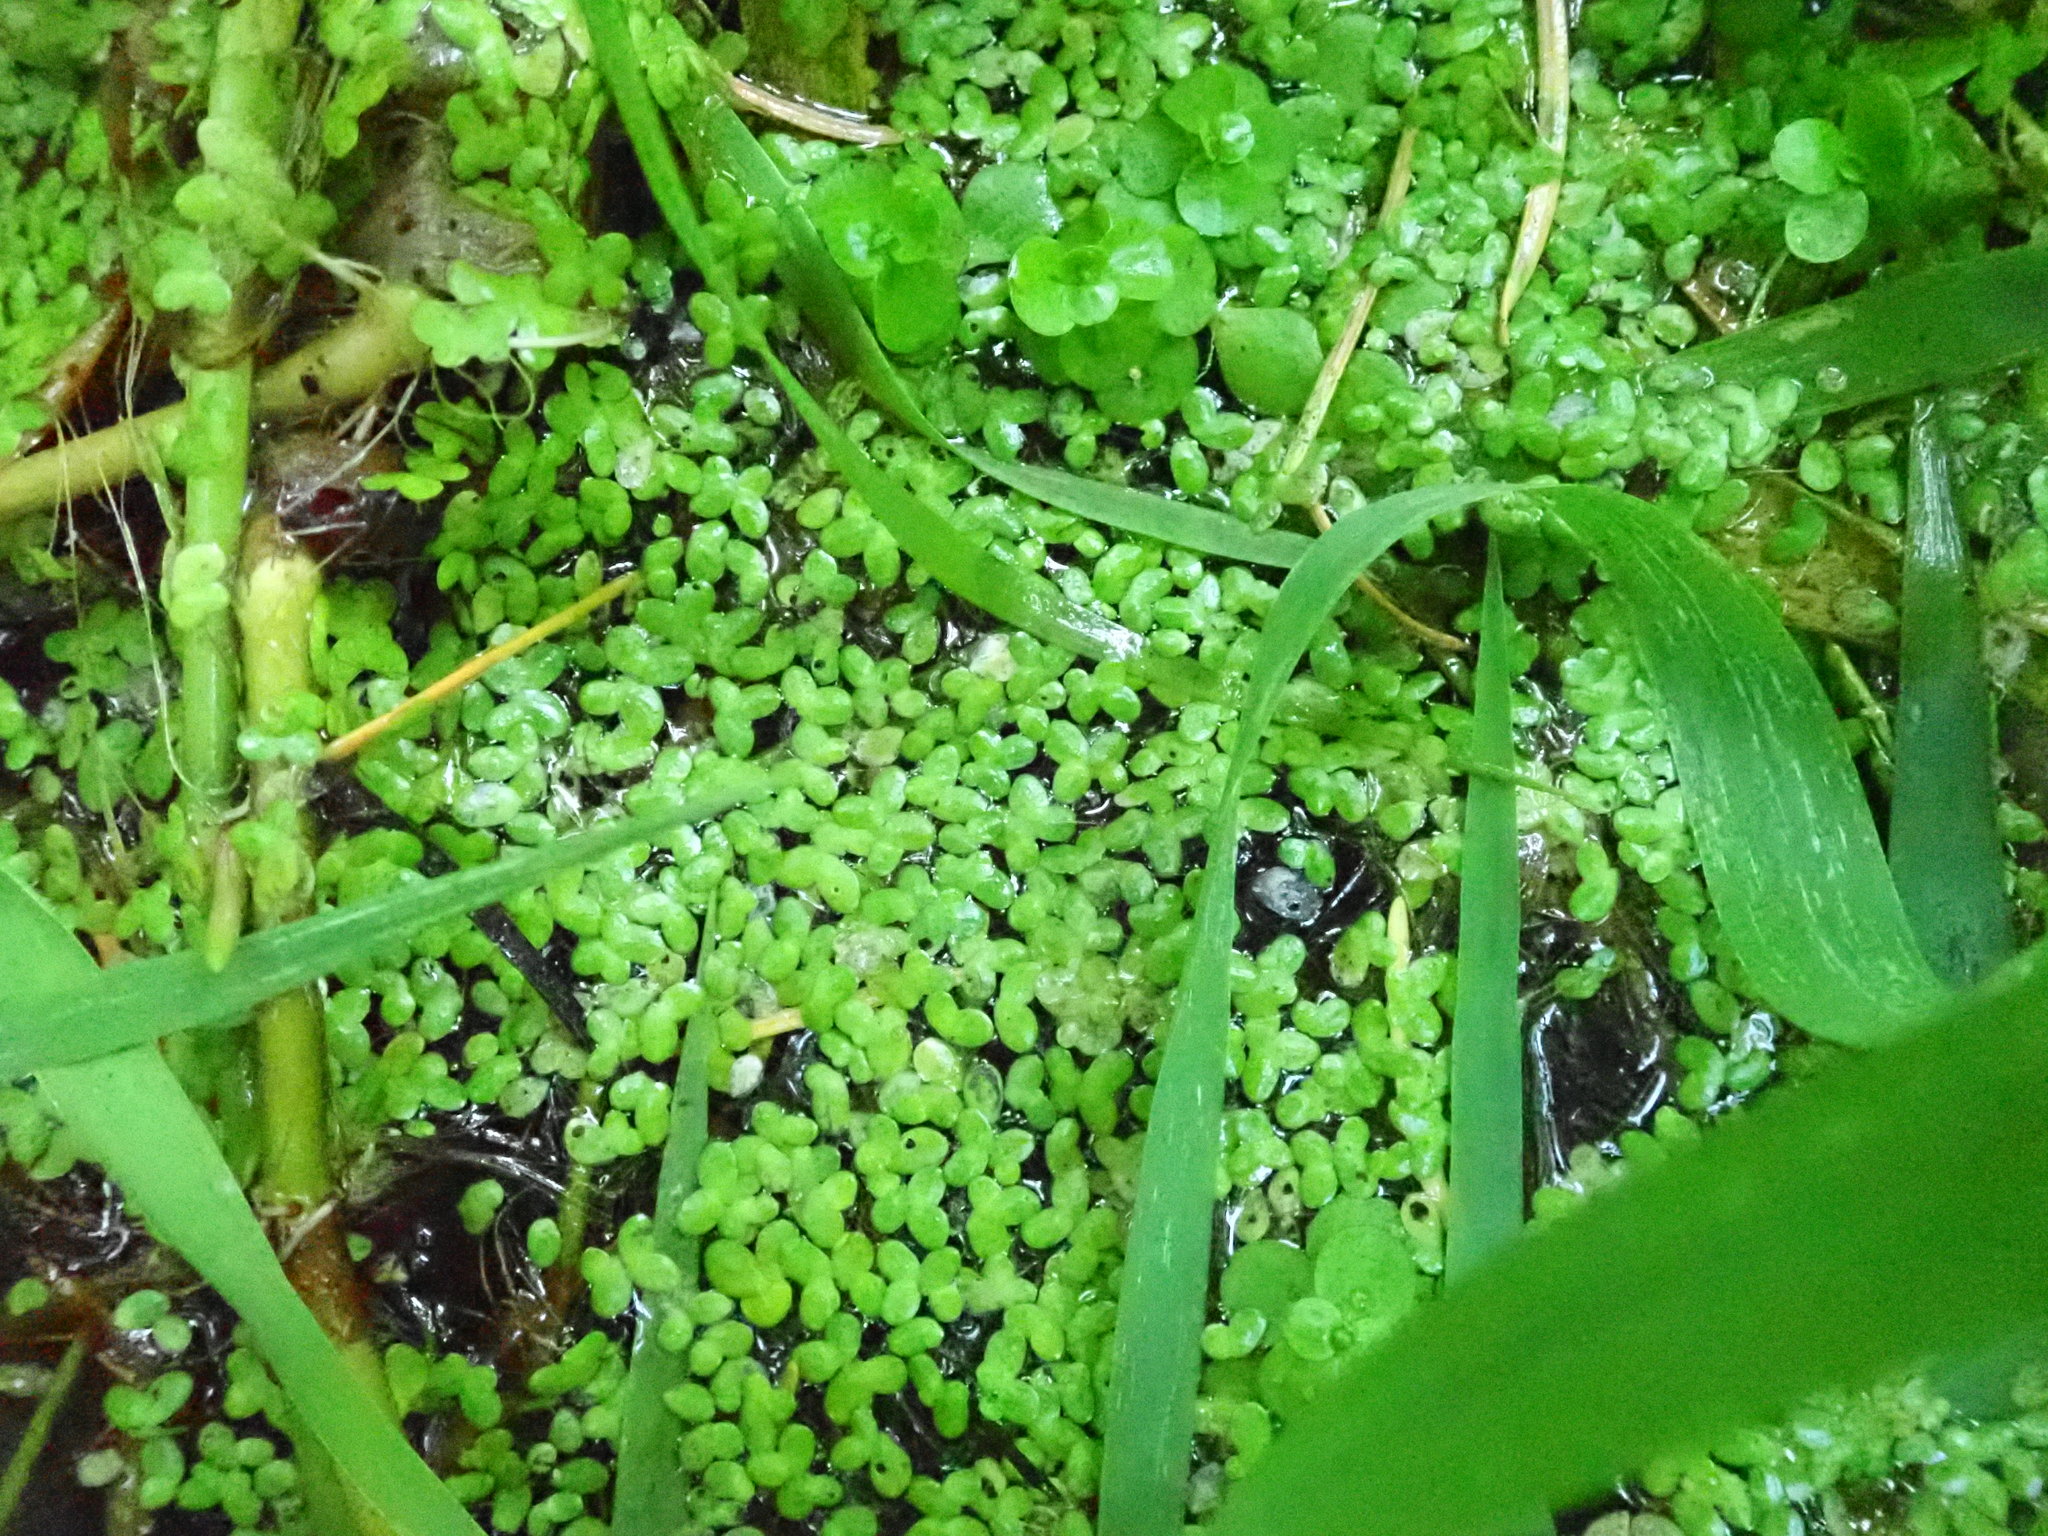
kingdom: Plantae
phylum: Tracheophyta
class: Liliopsida
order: Alismatales
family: Araceae
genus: Lemna
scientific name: Lemna minor
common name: Common duckweed
